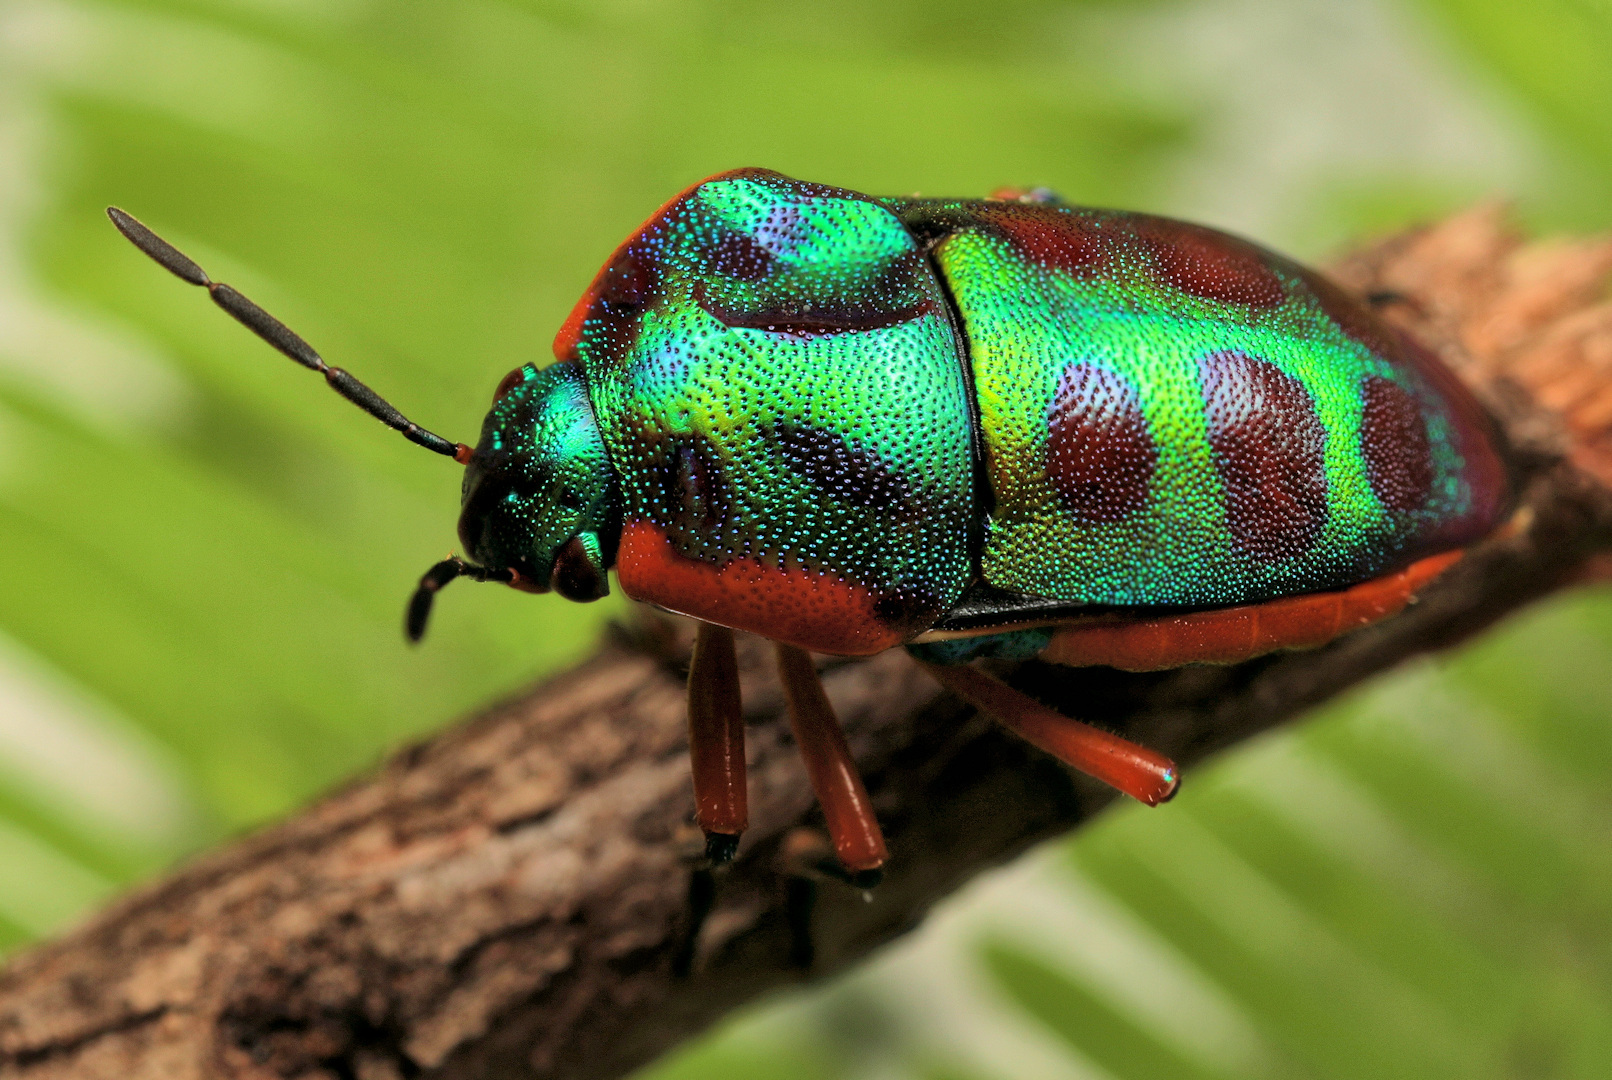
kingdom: Animalia
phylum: Arthropoda
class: Insecta
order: Hemiptera
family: Scutelleridae
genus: Calidea
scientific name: Calidea
